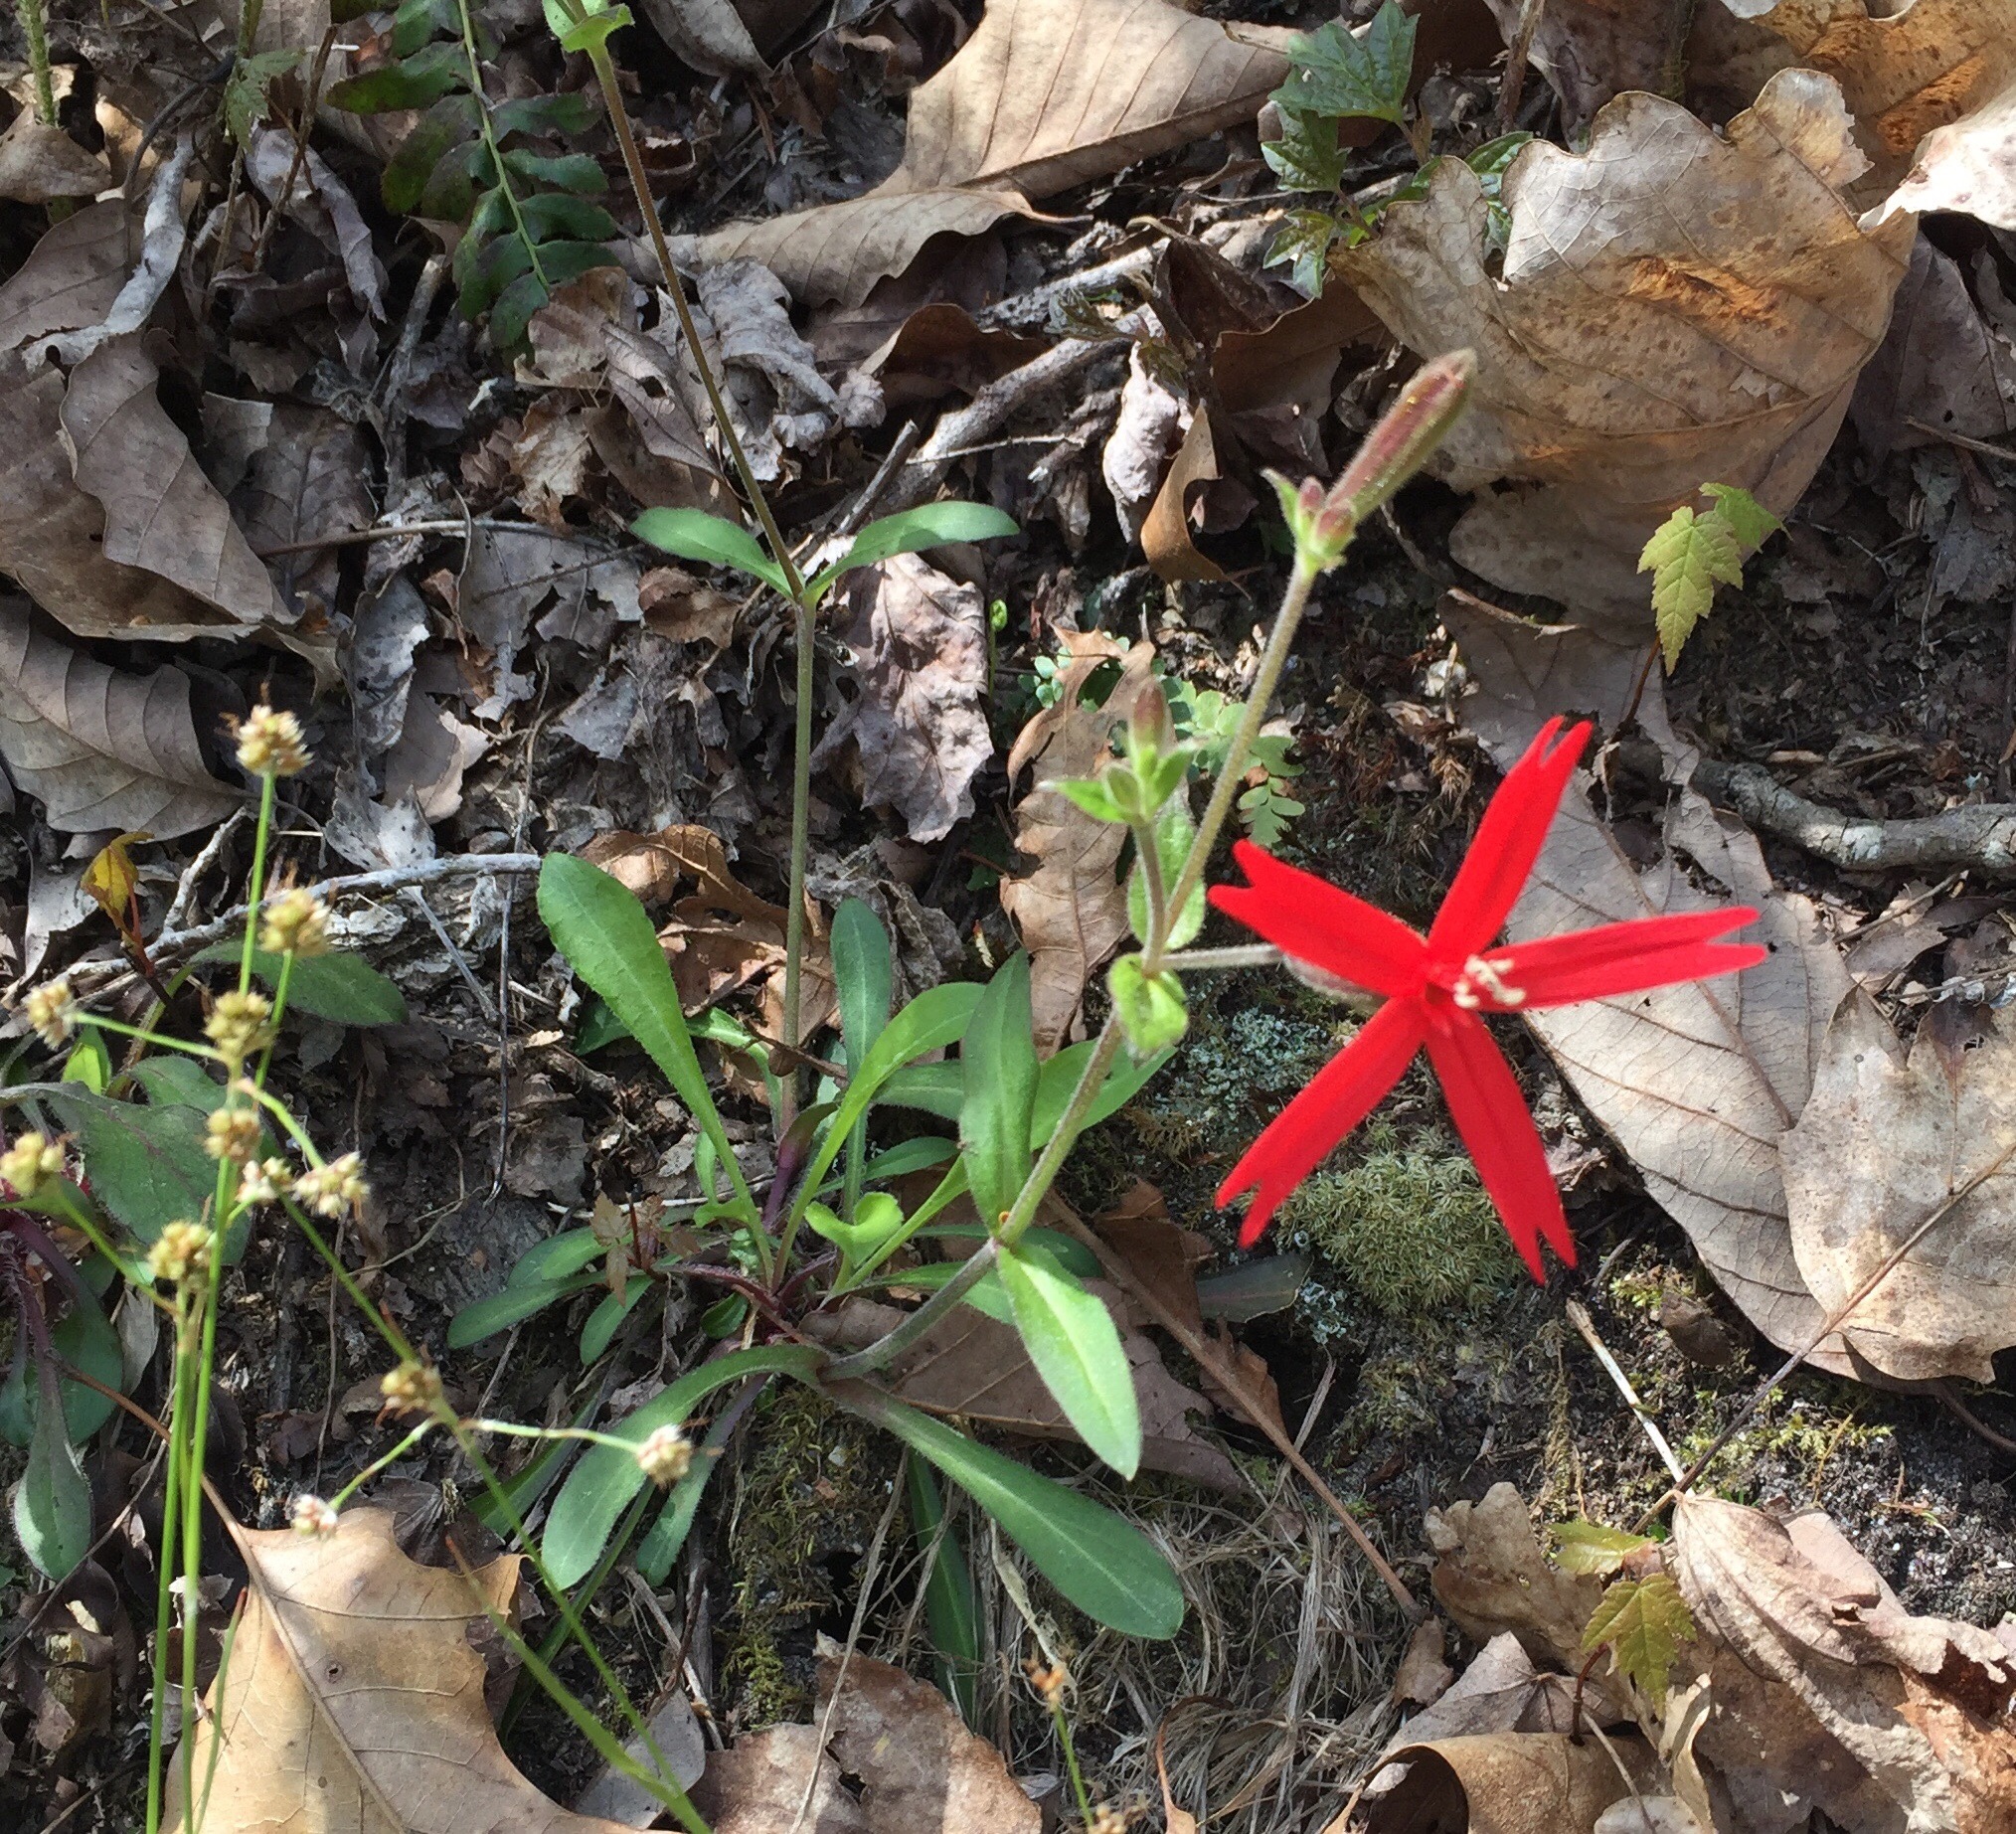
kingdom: Plantae
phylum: Tracheophyta
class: Magnoliopsida
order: Caryophyllales
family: Caryophyllaceae
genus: Silene
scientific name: Silene virginica
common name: Fire-pink
